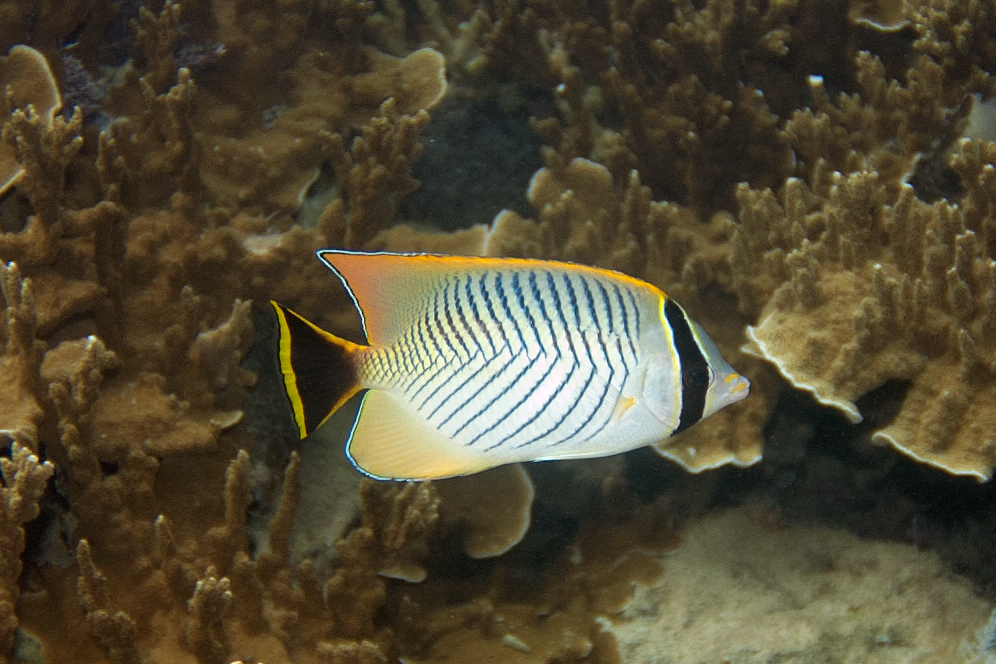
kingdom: Animalia
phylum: Chordata
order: Perciformes
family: Chaetodontidae
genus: Chaetodon
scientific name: Chaetodon trifascialis
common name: Chevroned butterflyfish
